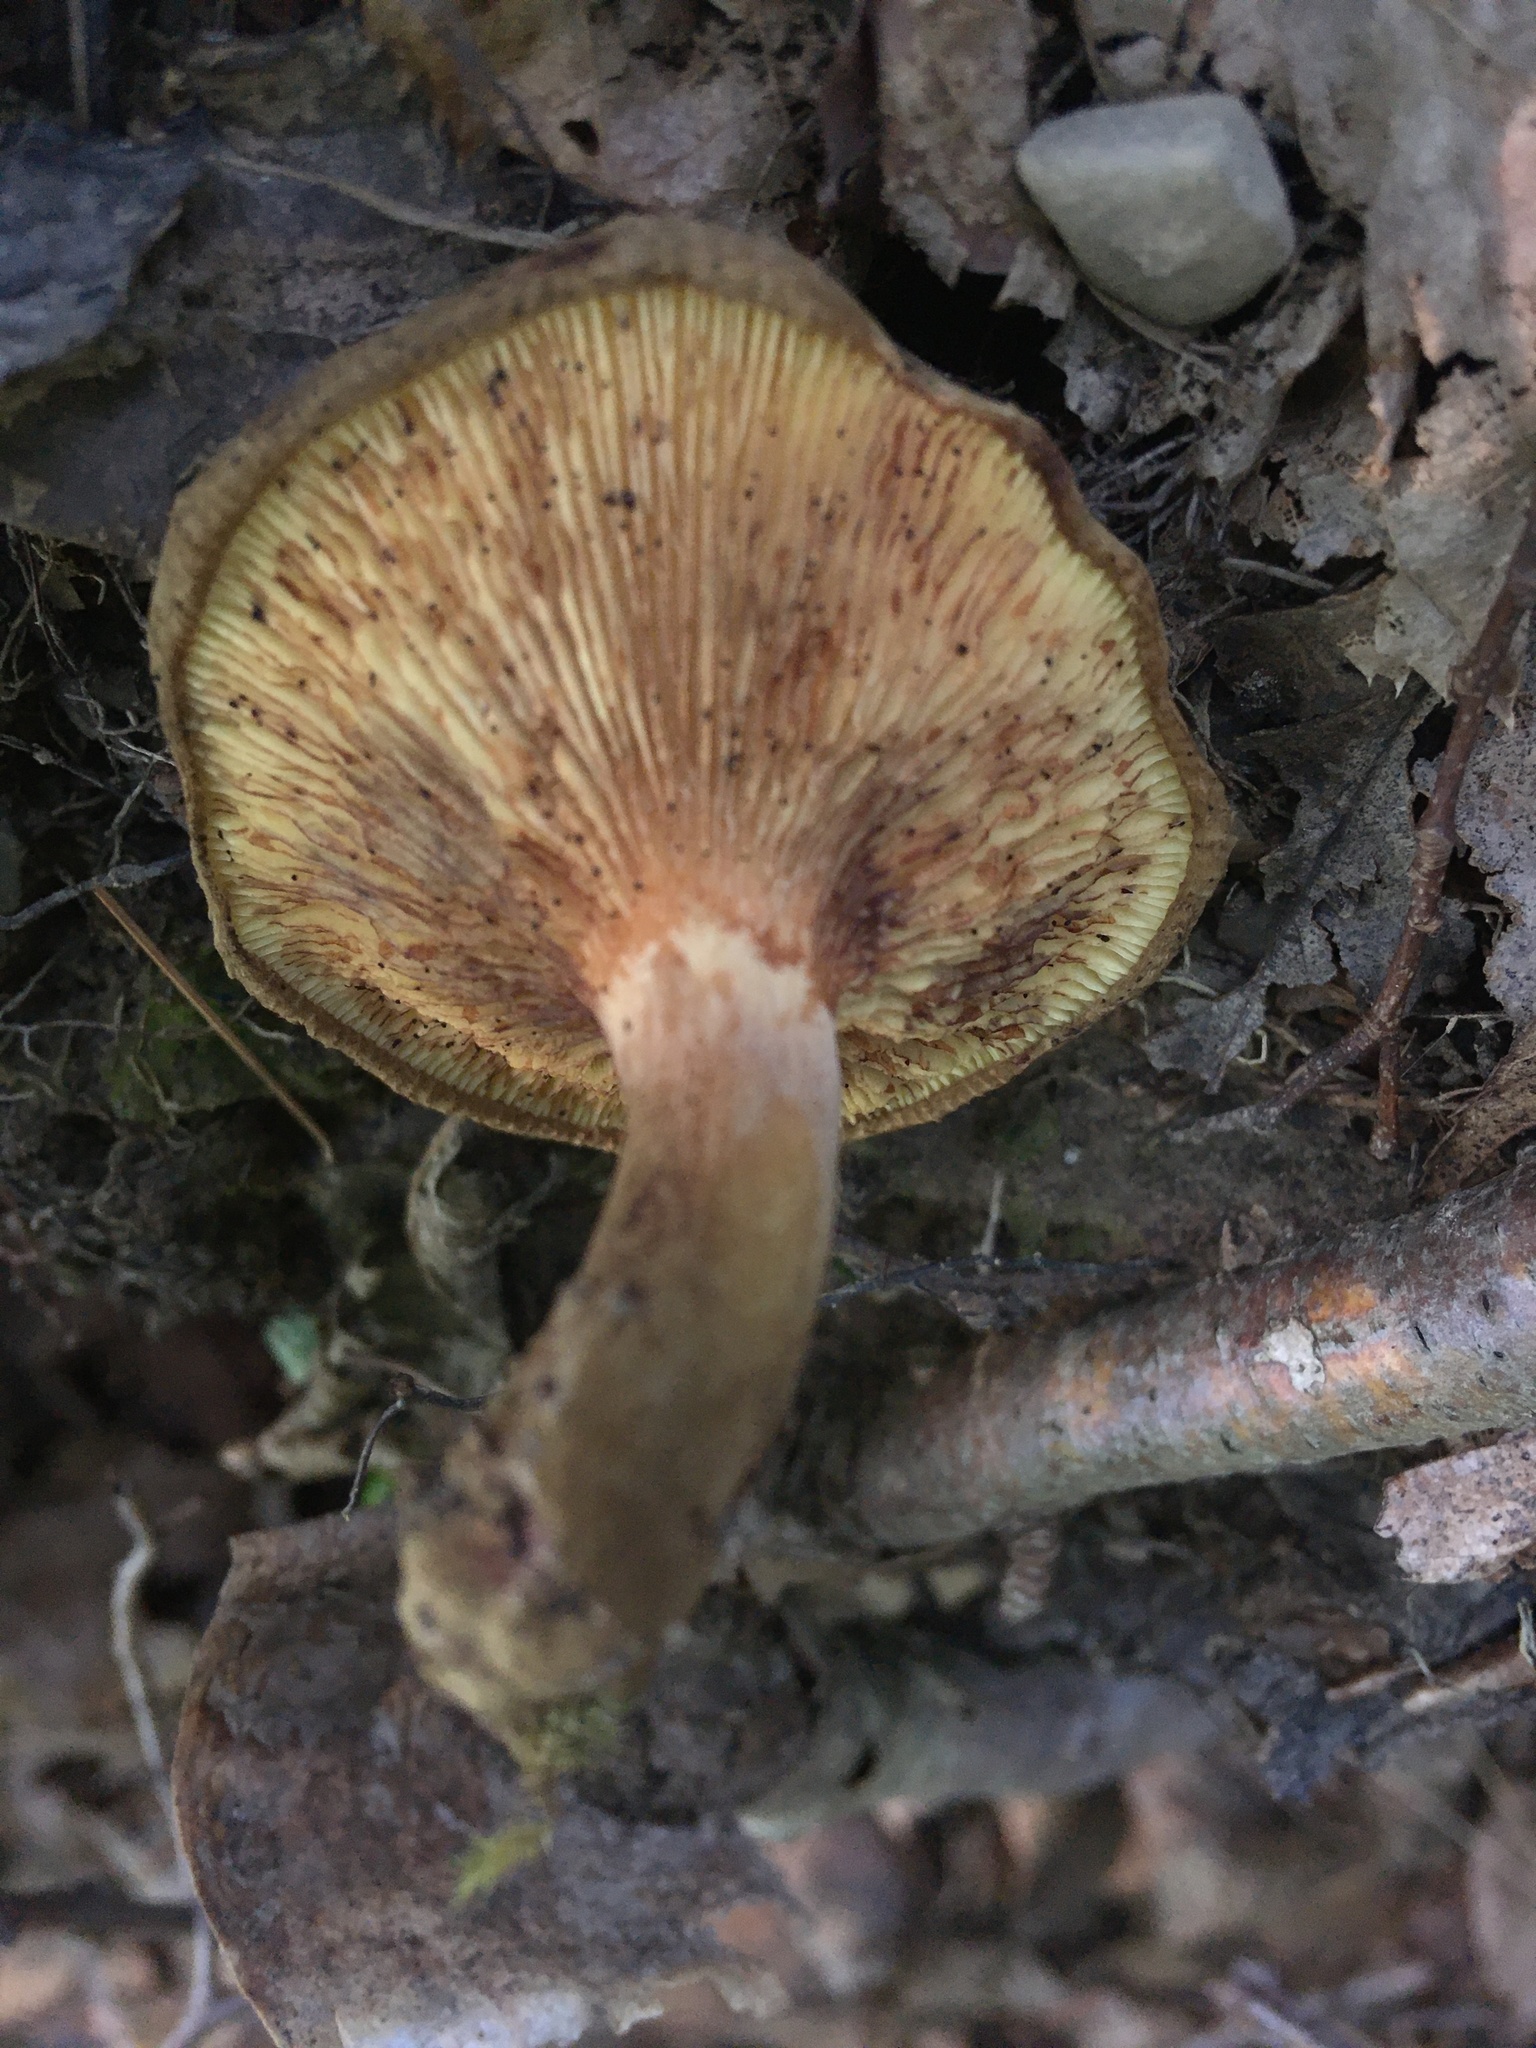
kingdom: Fungi
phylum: Basidiomycota
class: Agaricomycetes
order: Boletales
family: Paxillaceae
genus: Paxillus
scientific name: Paxillus involutus
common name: Brown roll rim
